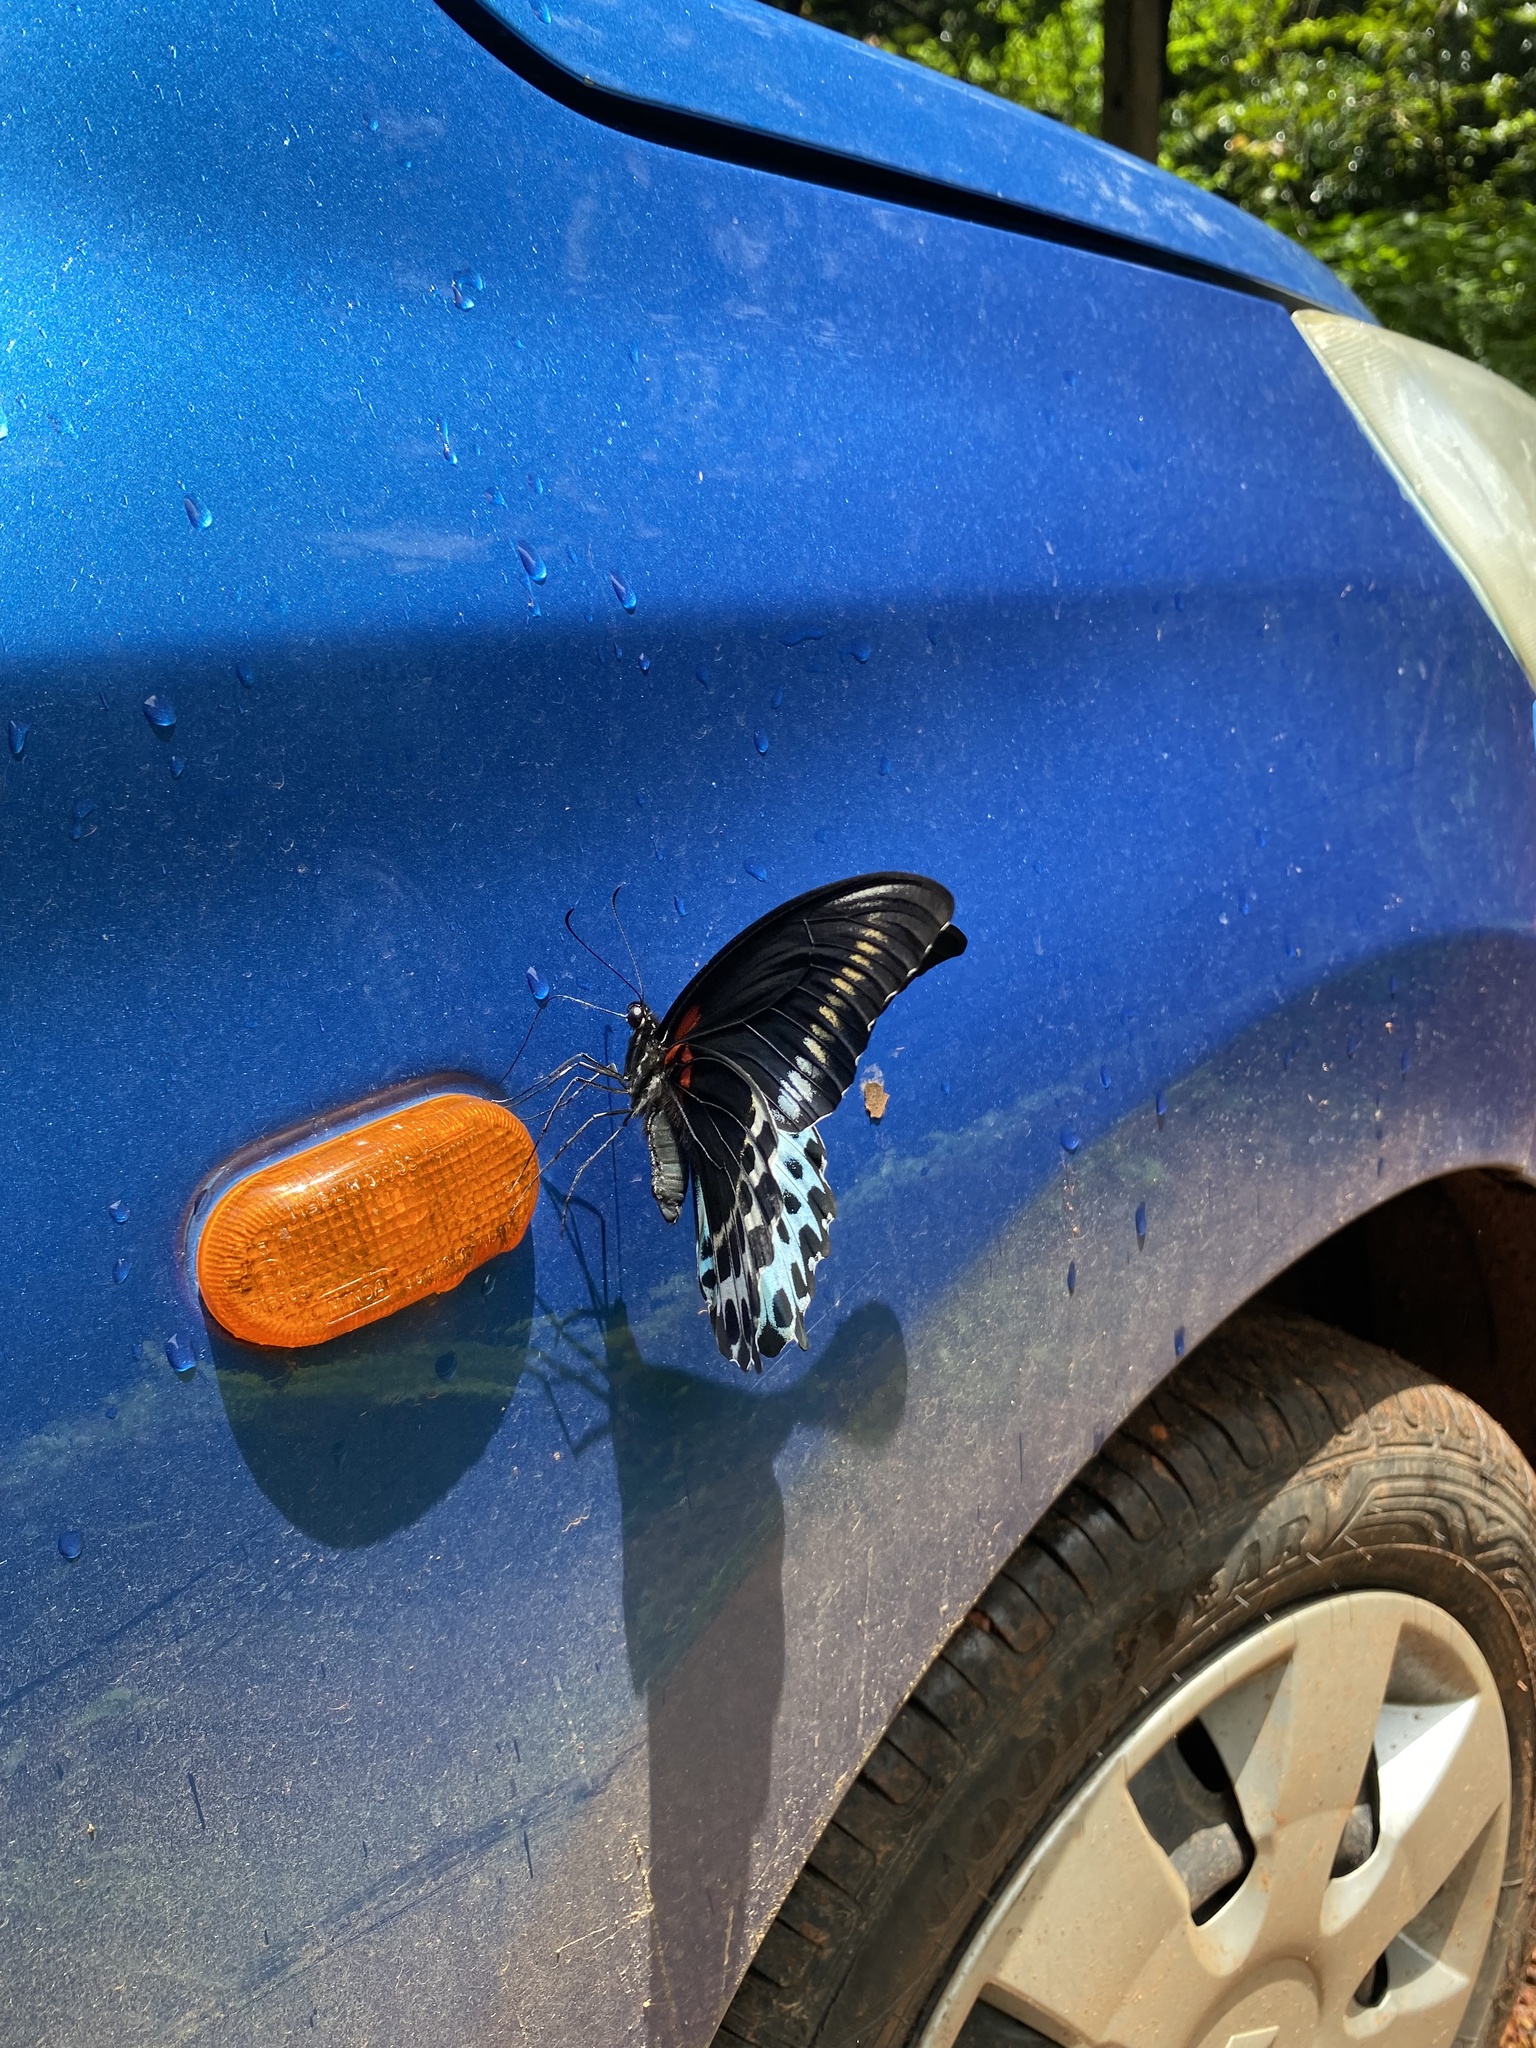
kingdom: Animalia
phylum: Arthropoda
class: Insecta
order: Lepidoptera
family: Papilionidae
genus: Papilio
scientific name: Papilio memnon
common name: Great mormon
